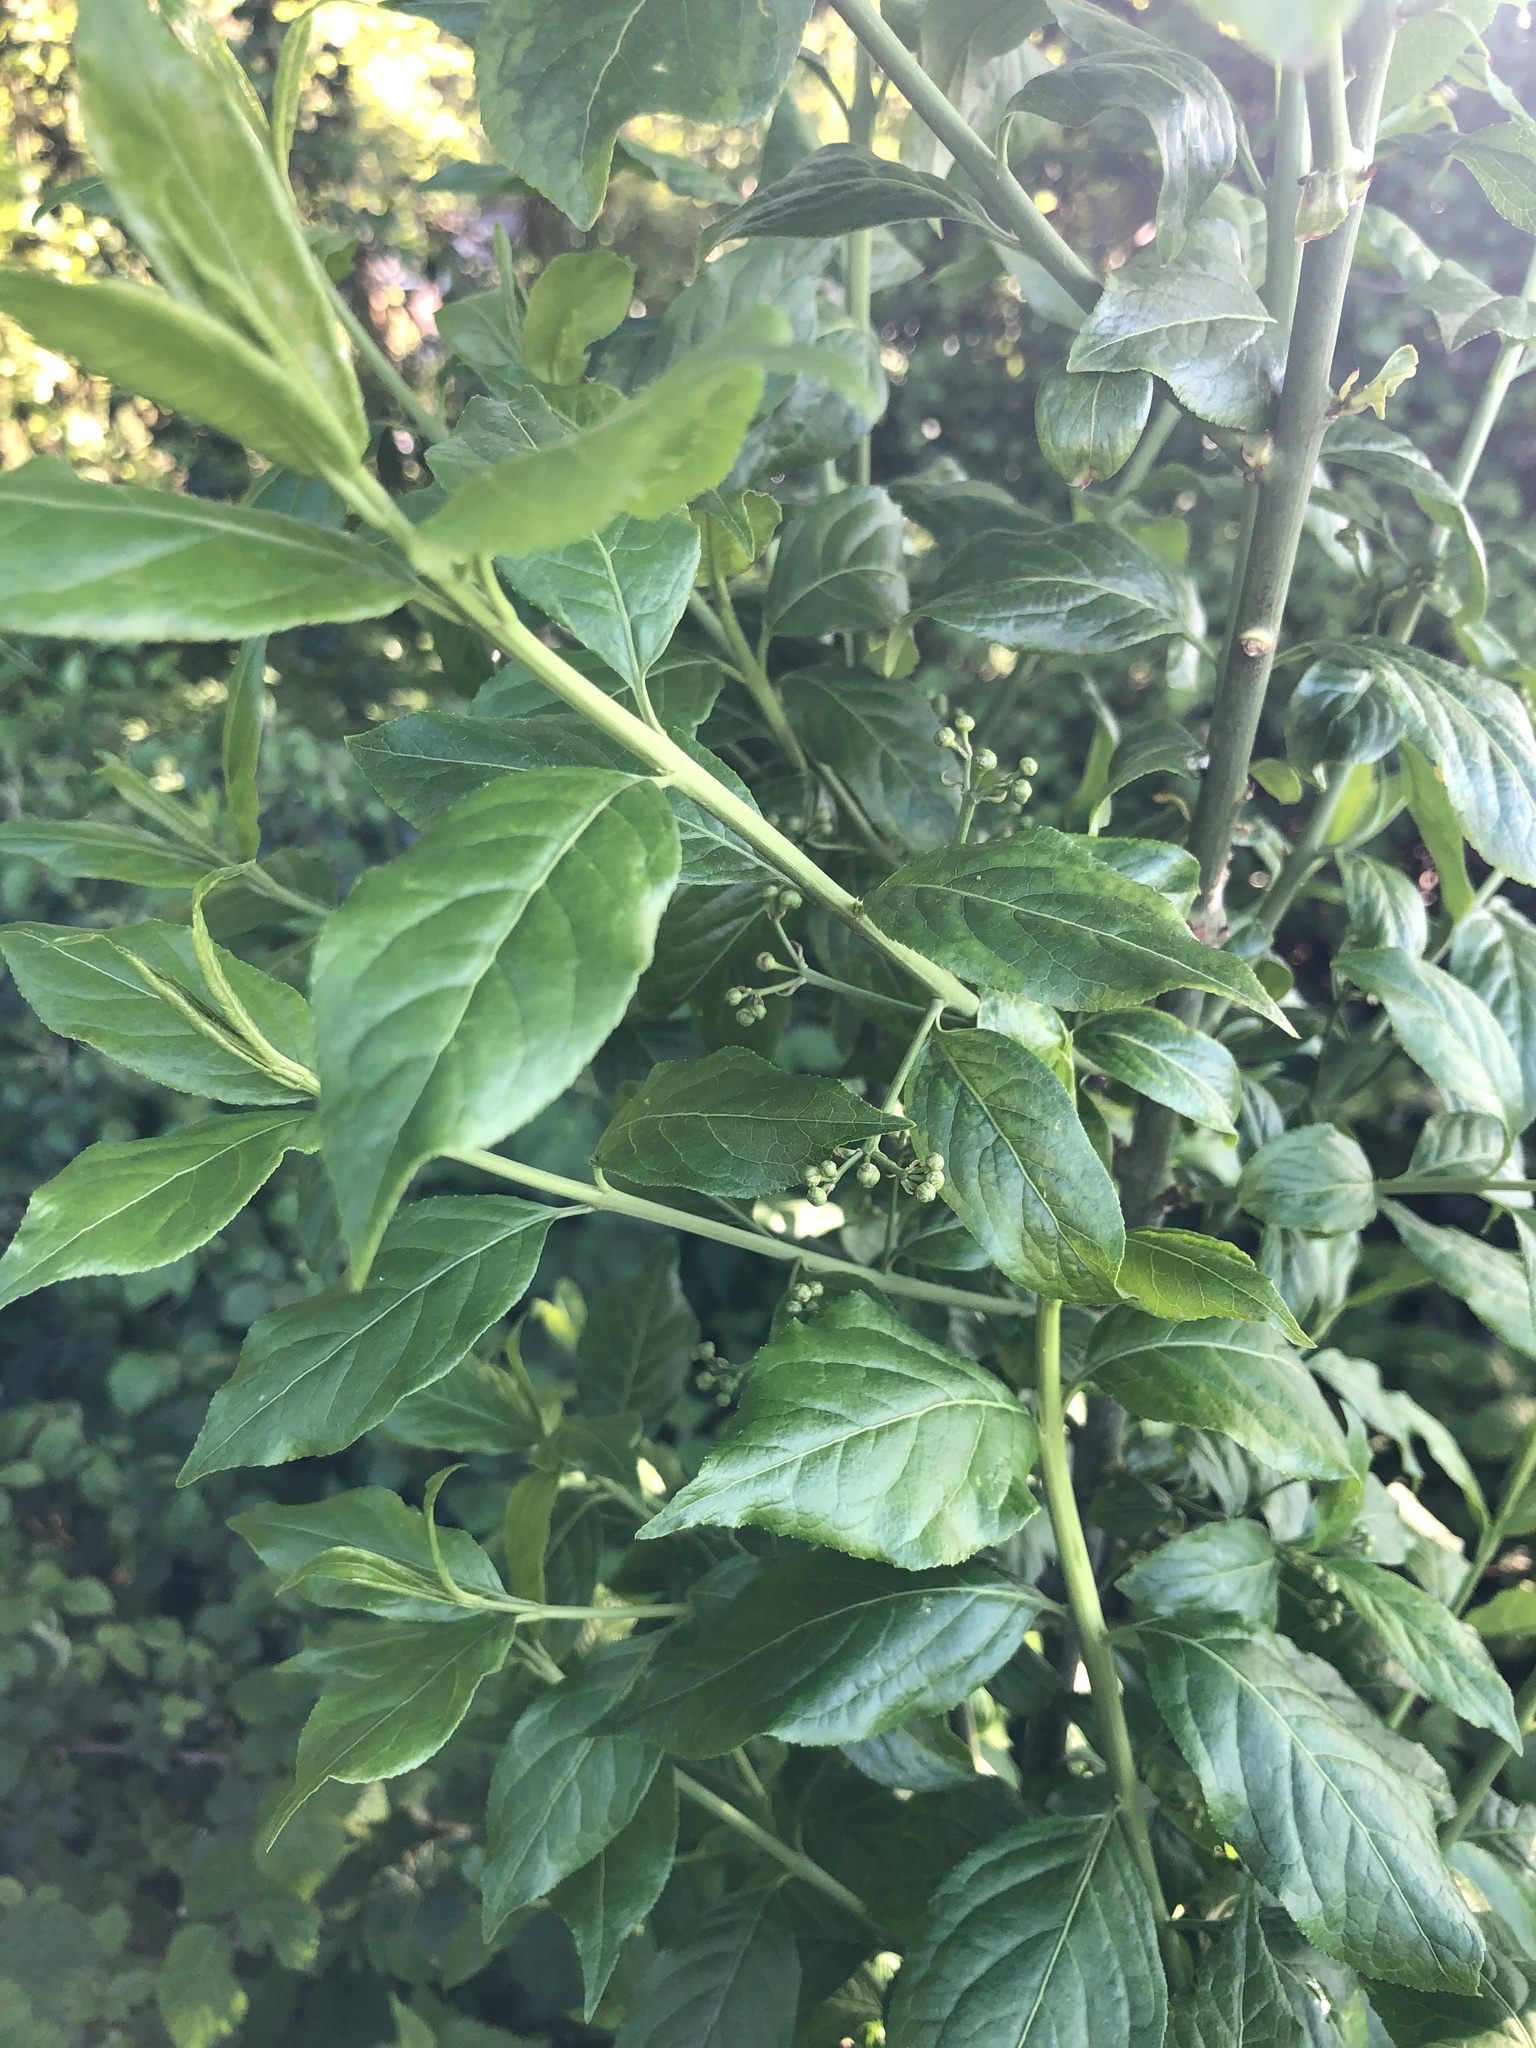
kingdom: Plantae
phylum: Tracheophyta
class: Magnoliopsida
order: Celastrales
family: Celastraceae
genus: Euonymus
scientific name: Euonymus europaeus
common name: Spindle
